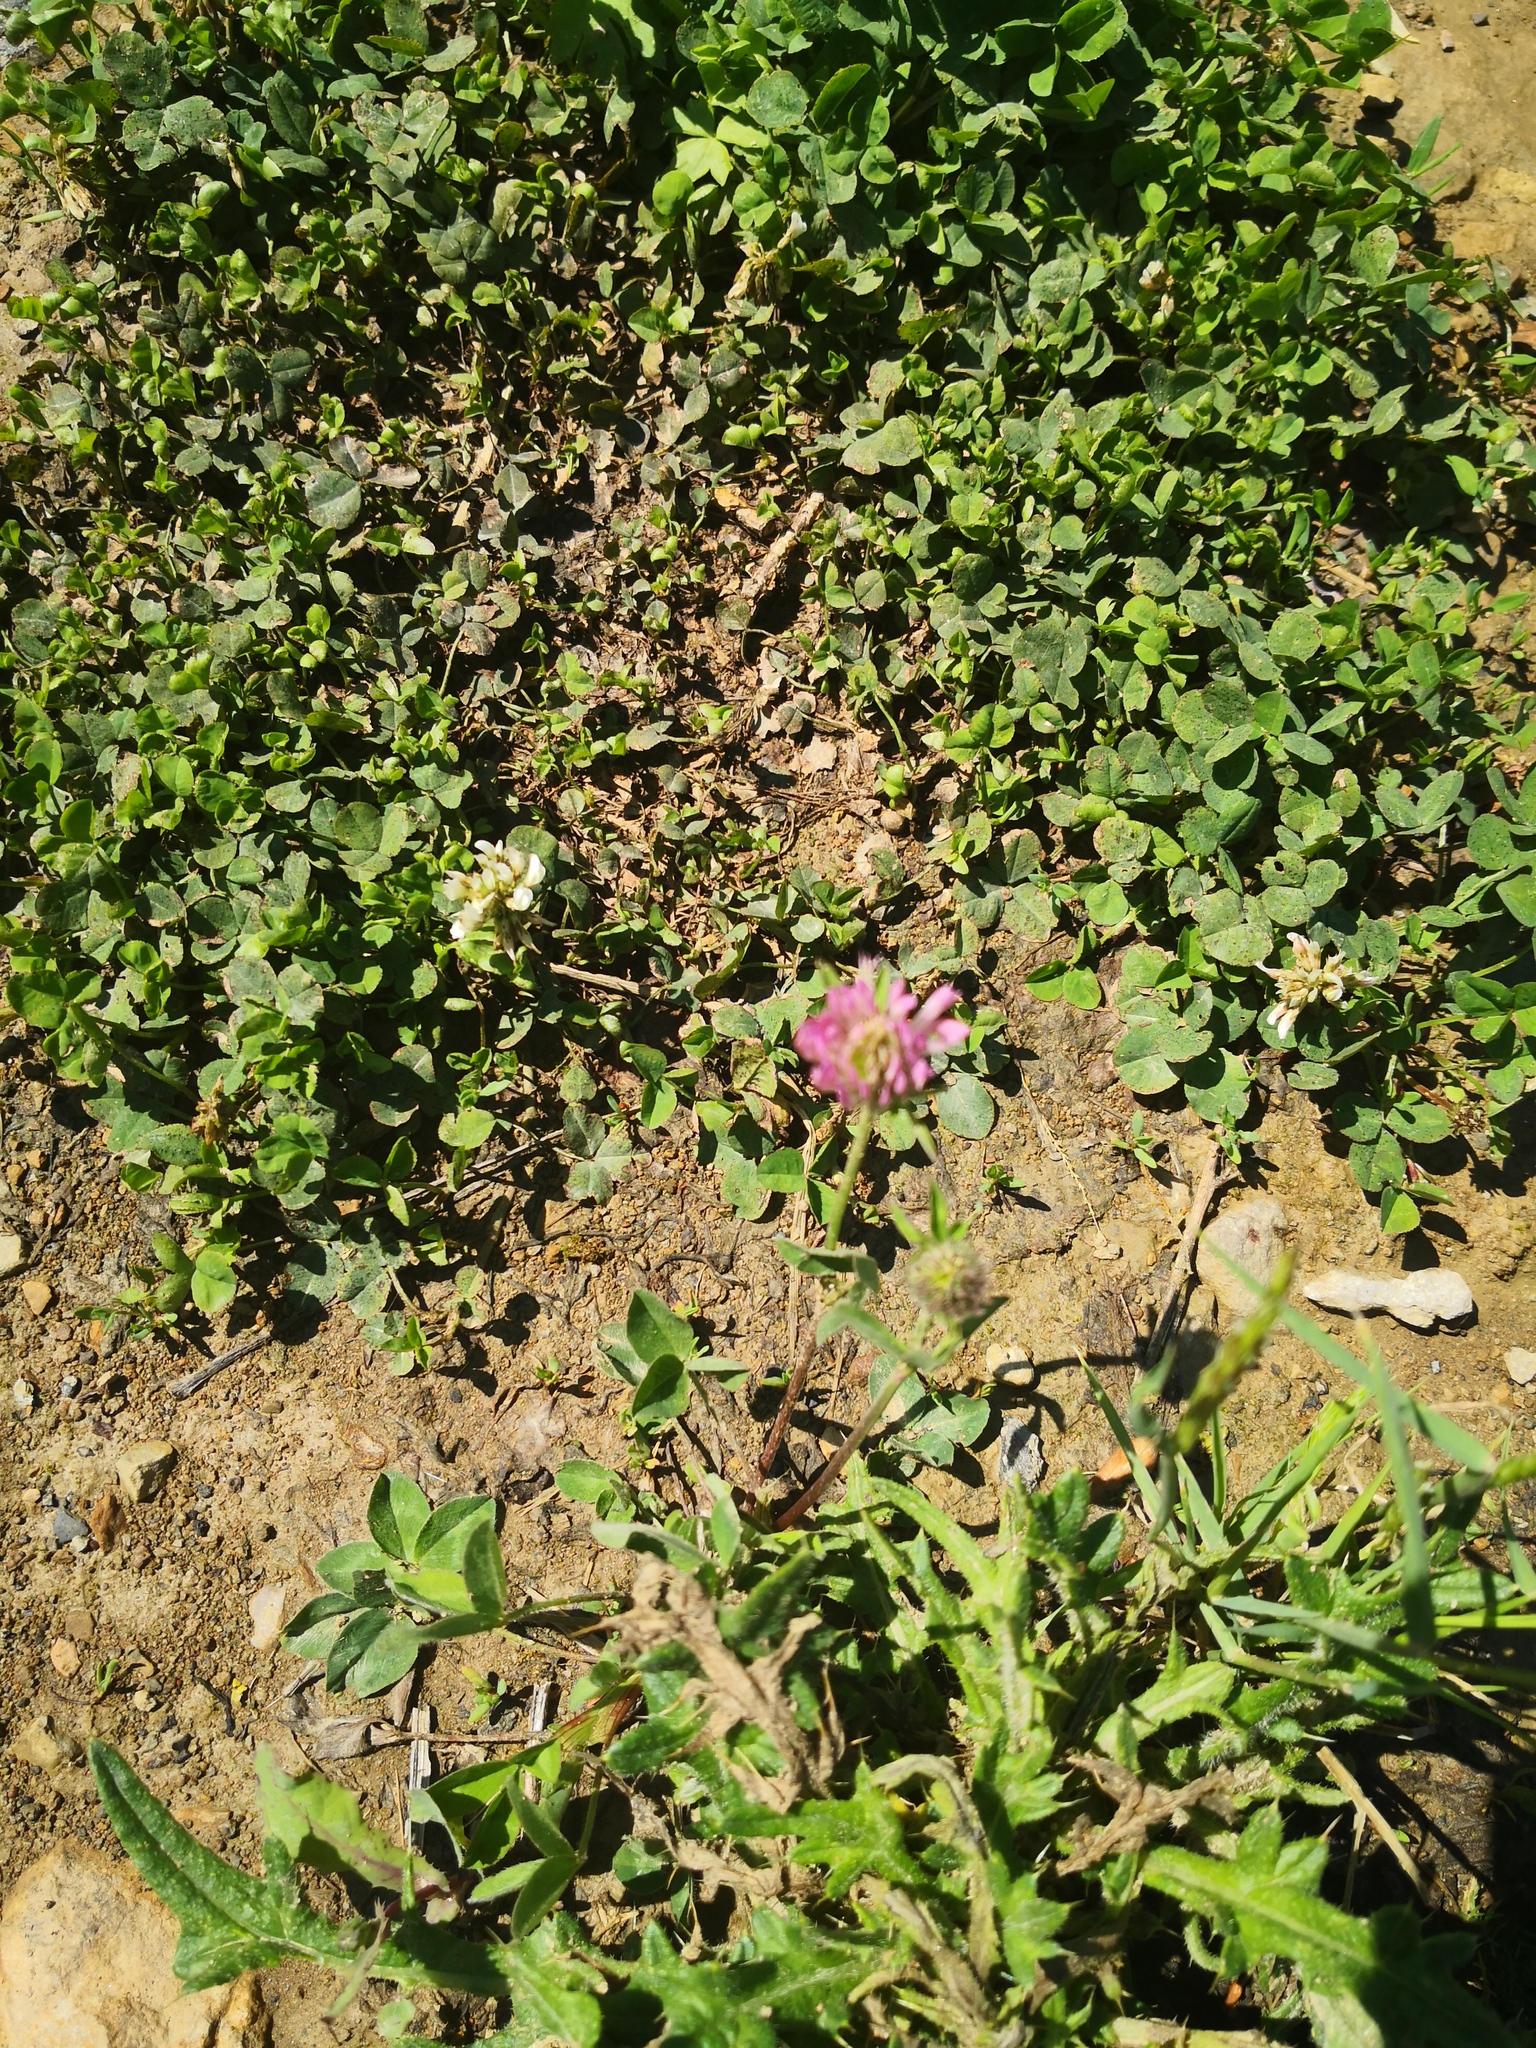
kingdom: Plantae
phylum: Tracheophyta
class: Magnoliopsida
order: Fabales
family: Fabaceae
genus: Trifolium
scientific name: Trifolium pratense
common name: Red clover
